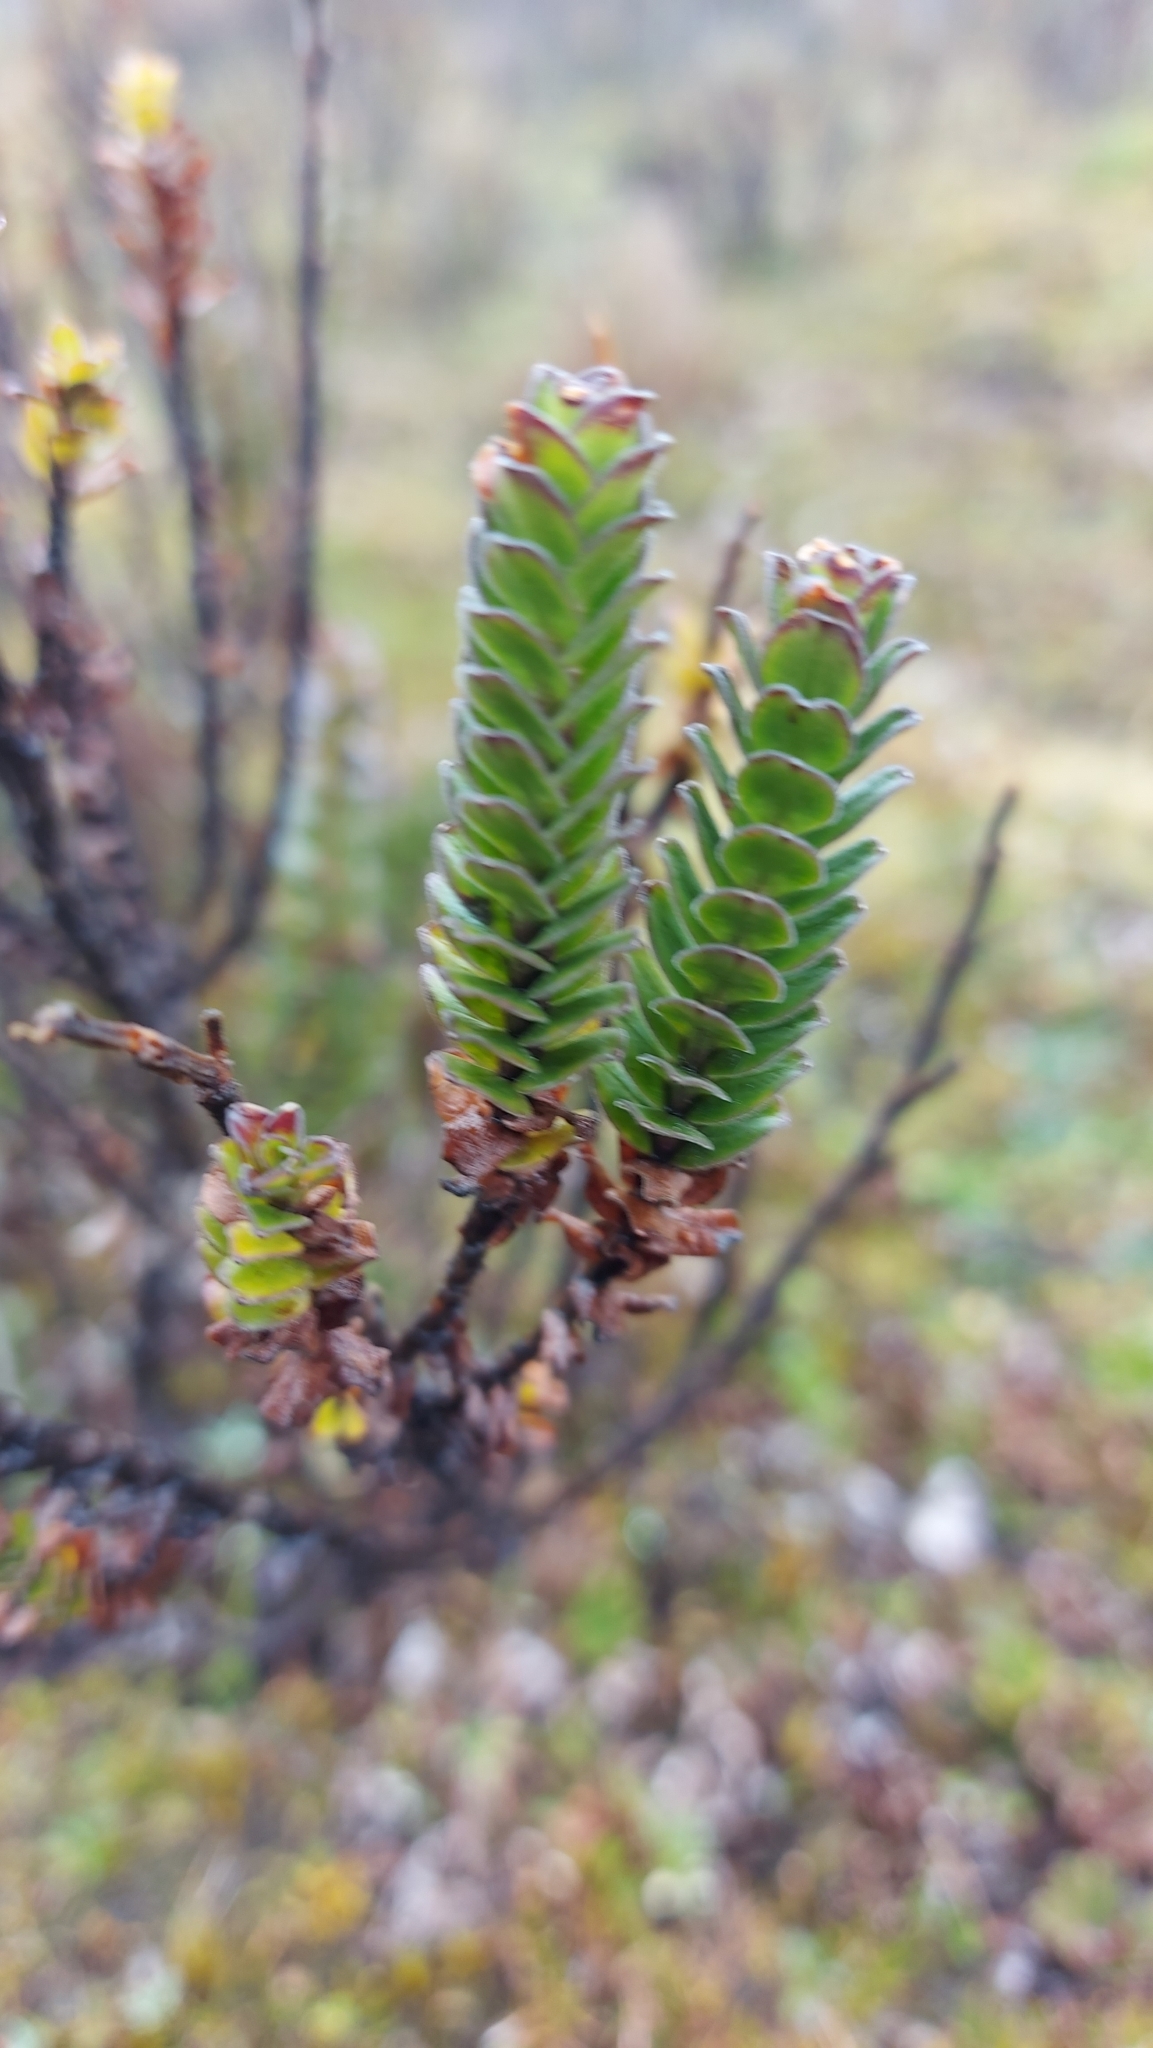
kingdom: Plantae
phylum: Tracheophyta
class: Magnoliopsida
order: Dipsacales
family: Caprifoliaceae
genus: Valeriana
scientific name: Valeriana microphylla
